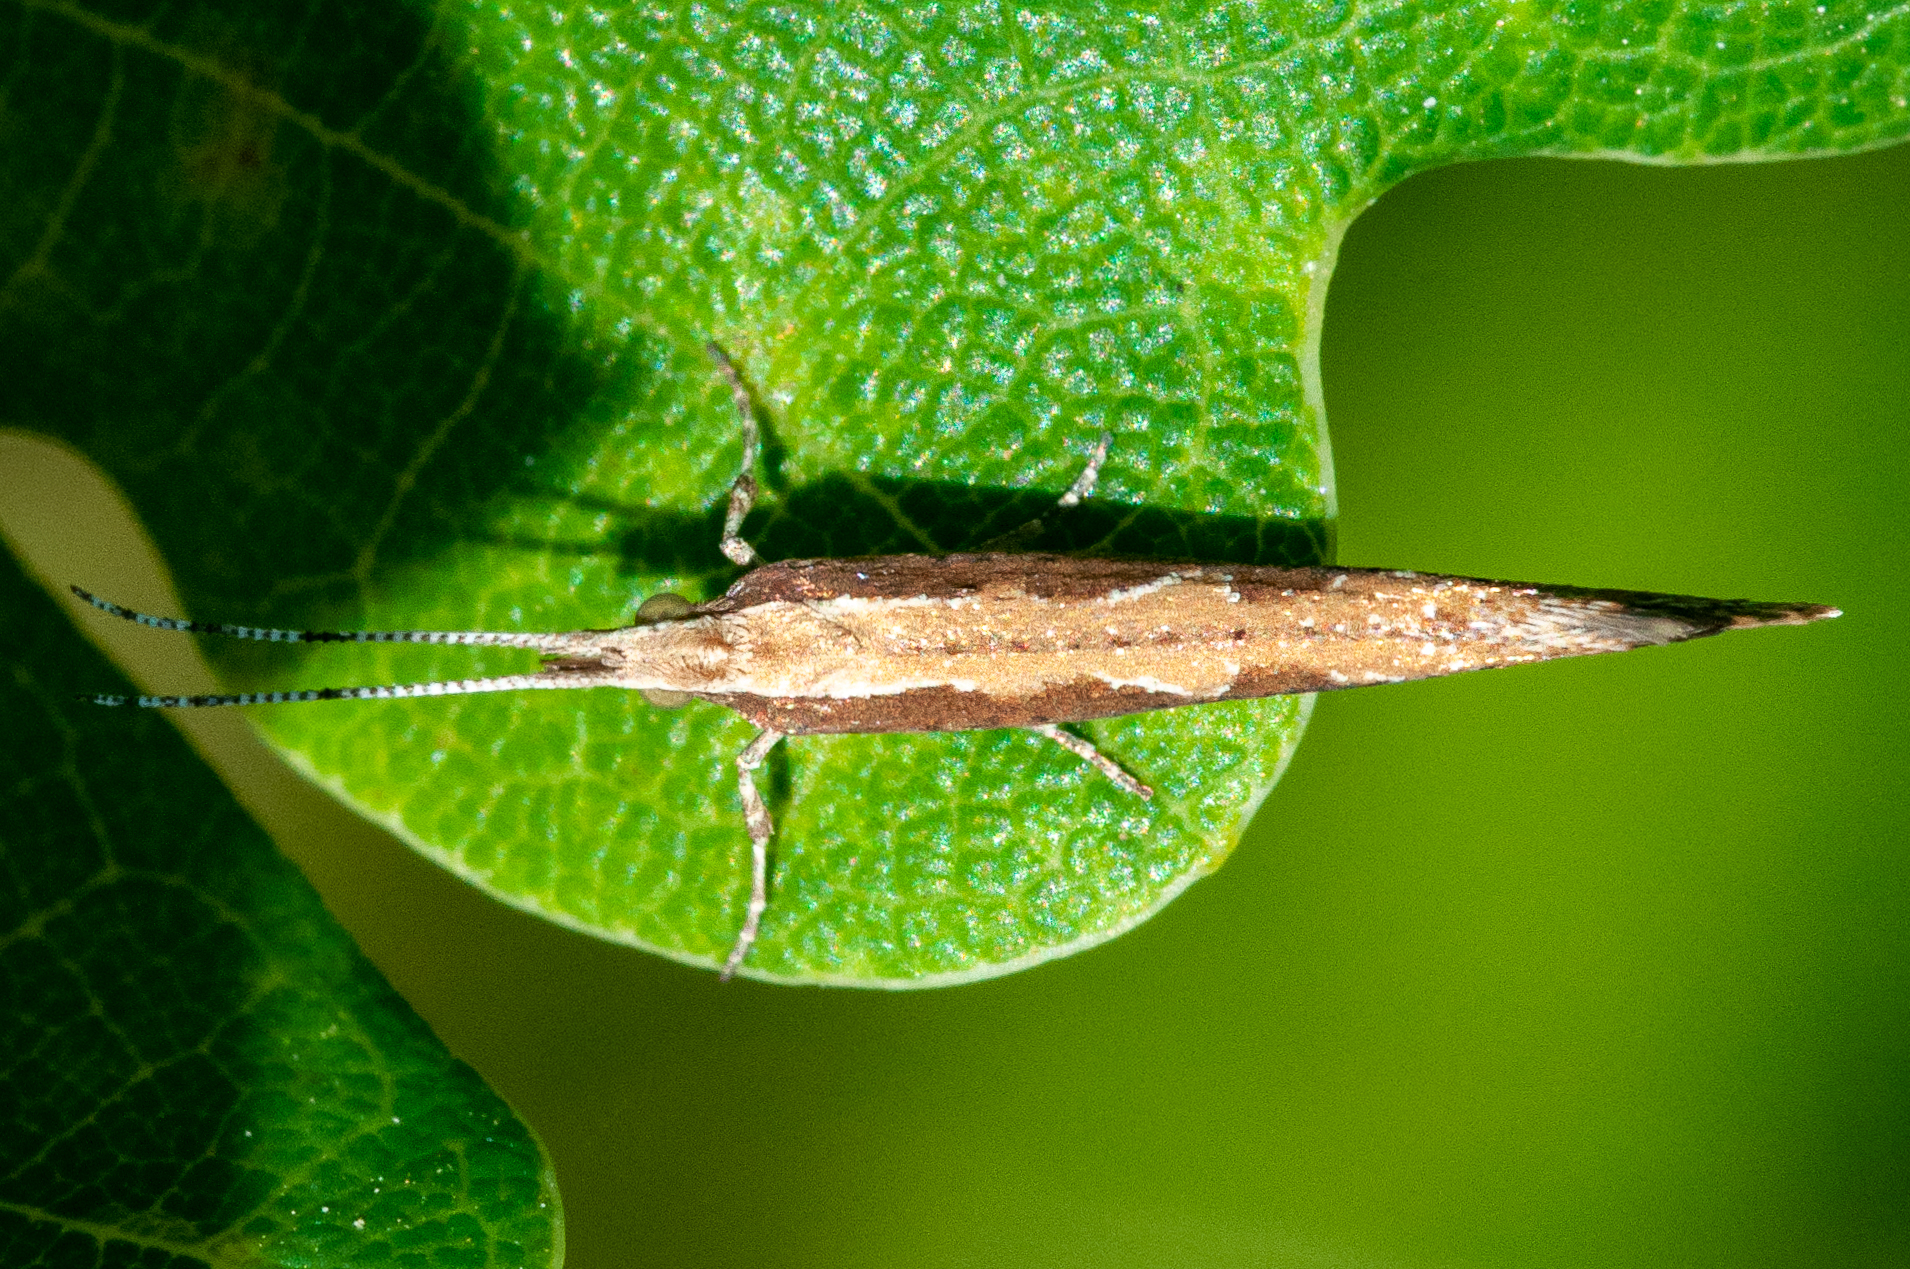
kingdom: Animalia
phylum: Arthropoda
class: Insecta
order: Lepidoptera
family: Plutellidae
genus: Plutella
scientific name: Plutella xylostella
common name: Diamond-back moth
